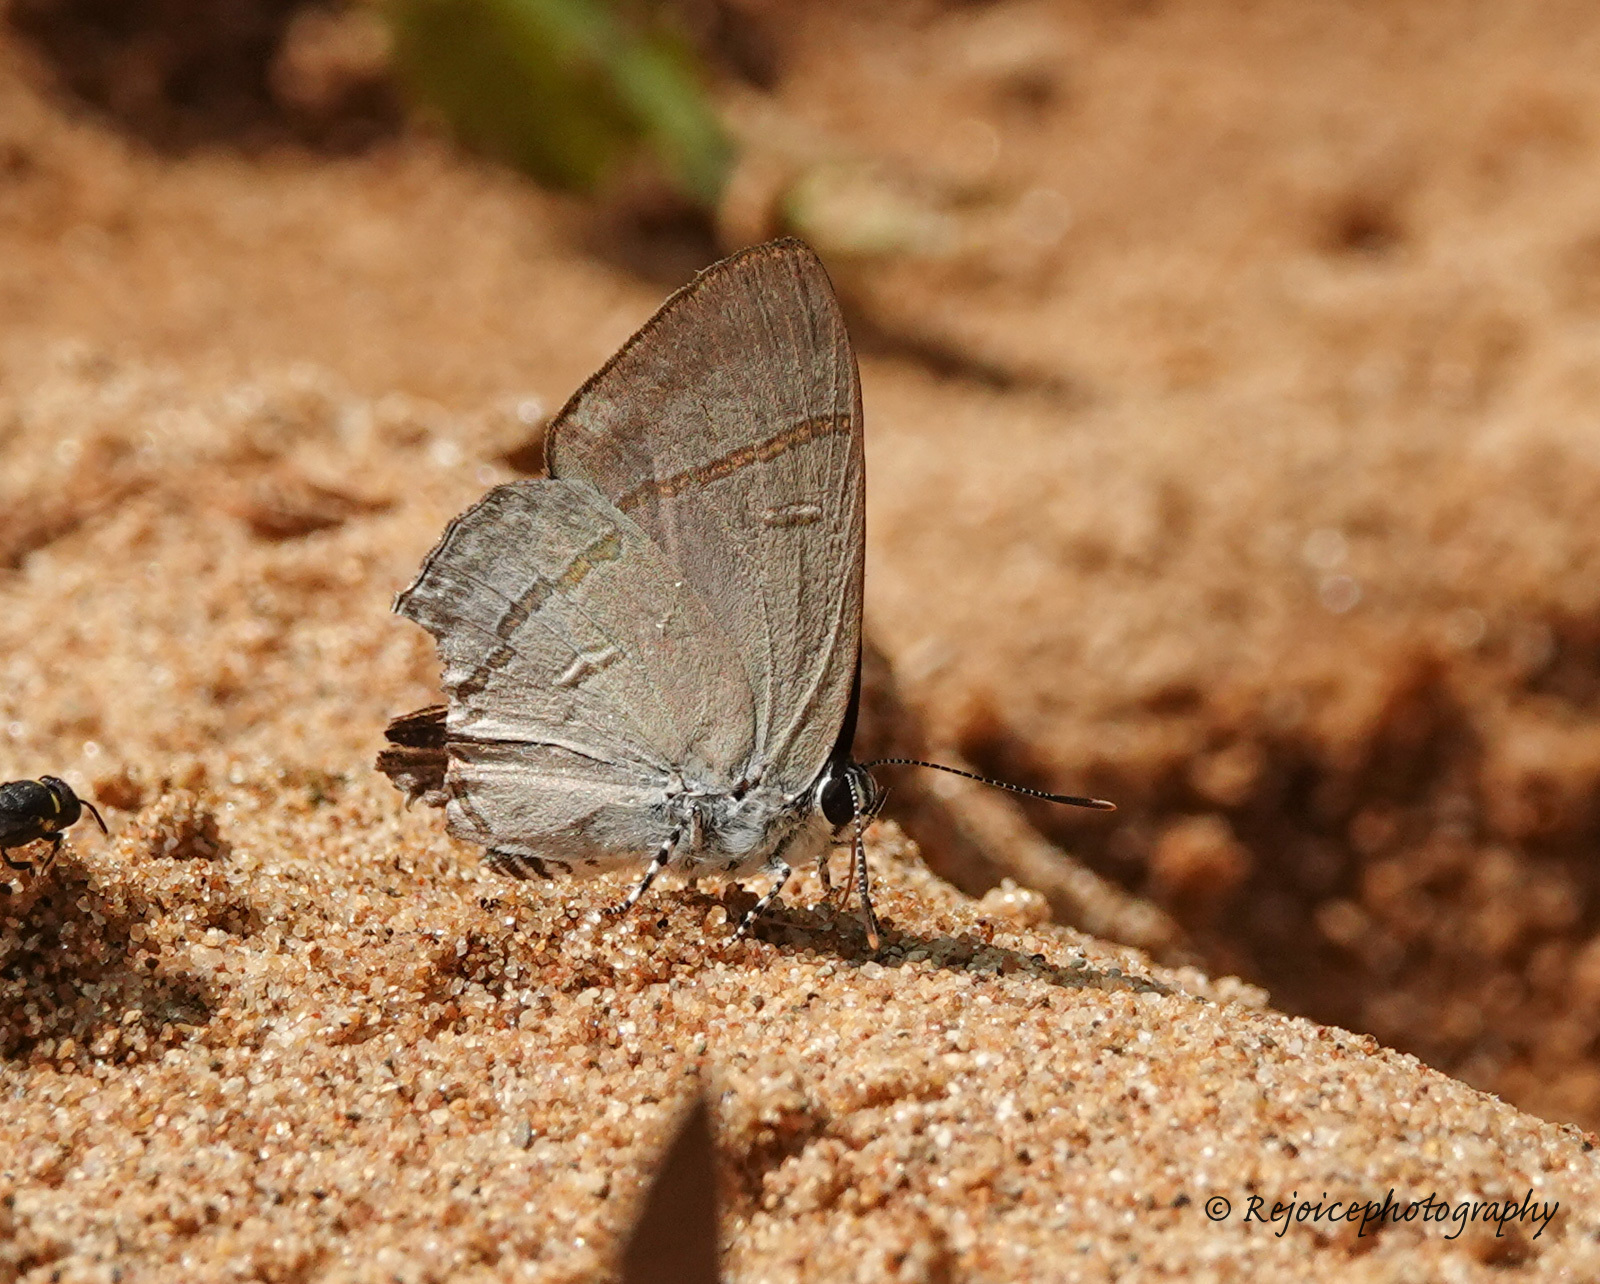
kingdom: Animalia
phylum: Arthropoda
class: Insecta
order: Lepidoptera
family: Lycaenidae
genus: Hypolycaena
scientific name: Hypolycaena erylus
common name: Common tit
